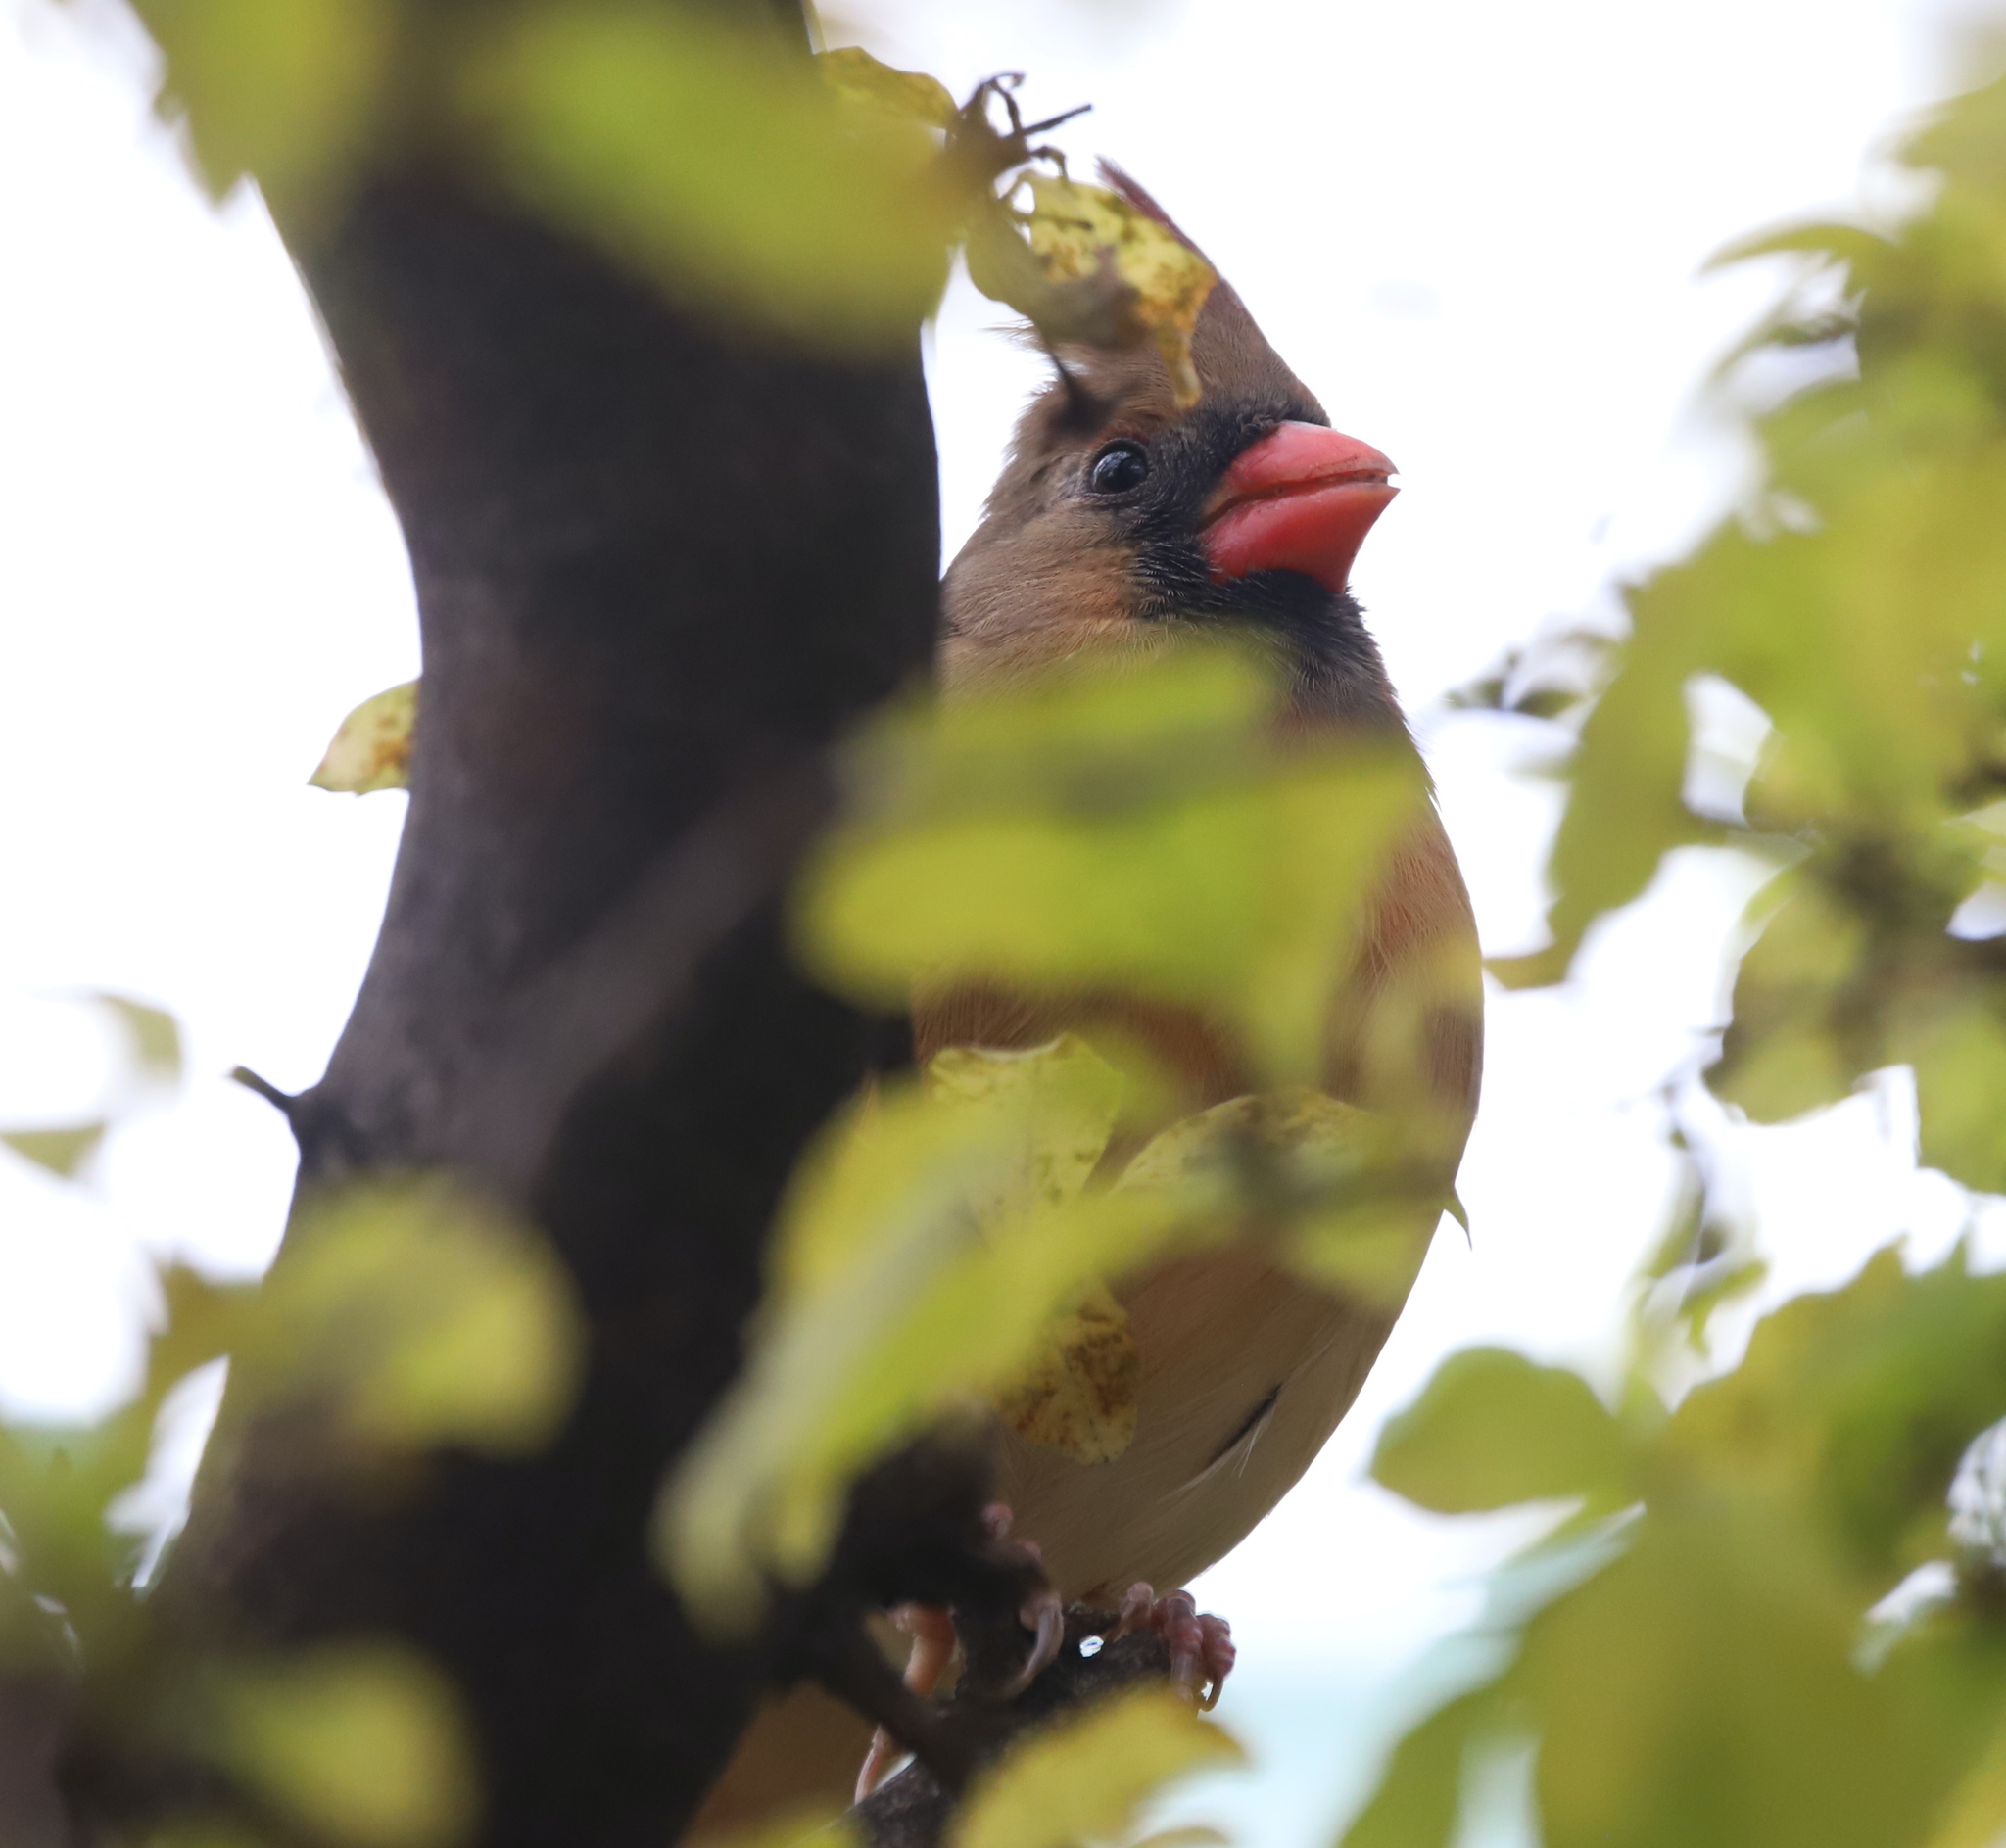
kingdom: Animalia
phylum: Chordata
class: Aves
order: Passeriformes
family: Cardinalidae
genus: Cardinalis
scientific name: Cardinalis cardinalis
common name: Northern cardinal
